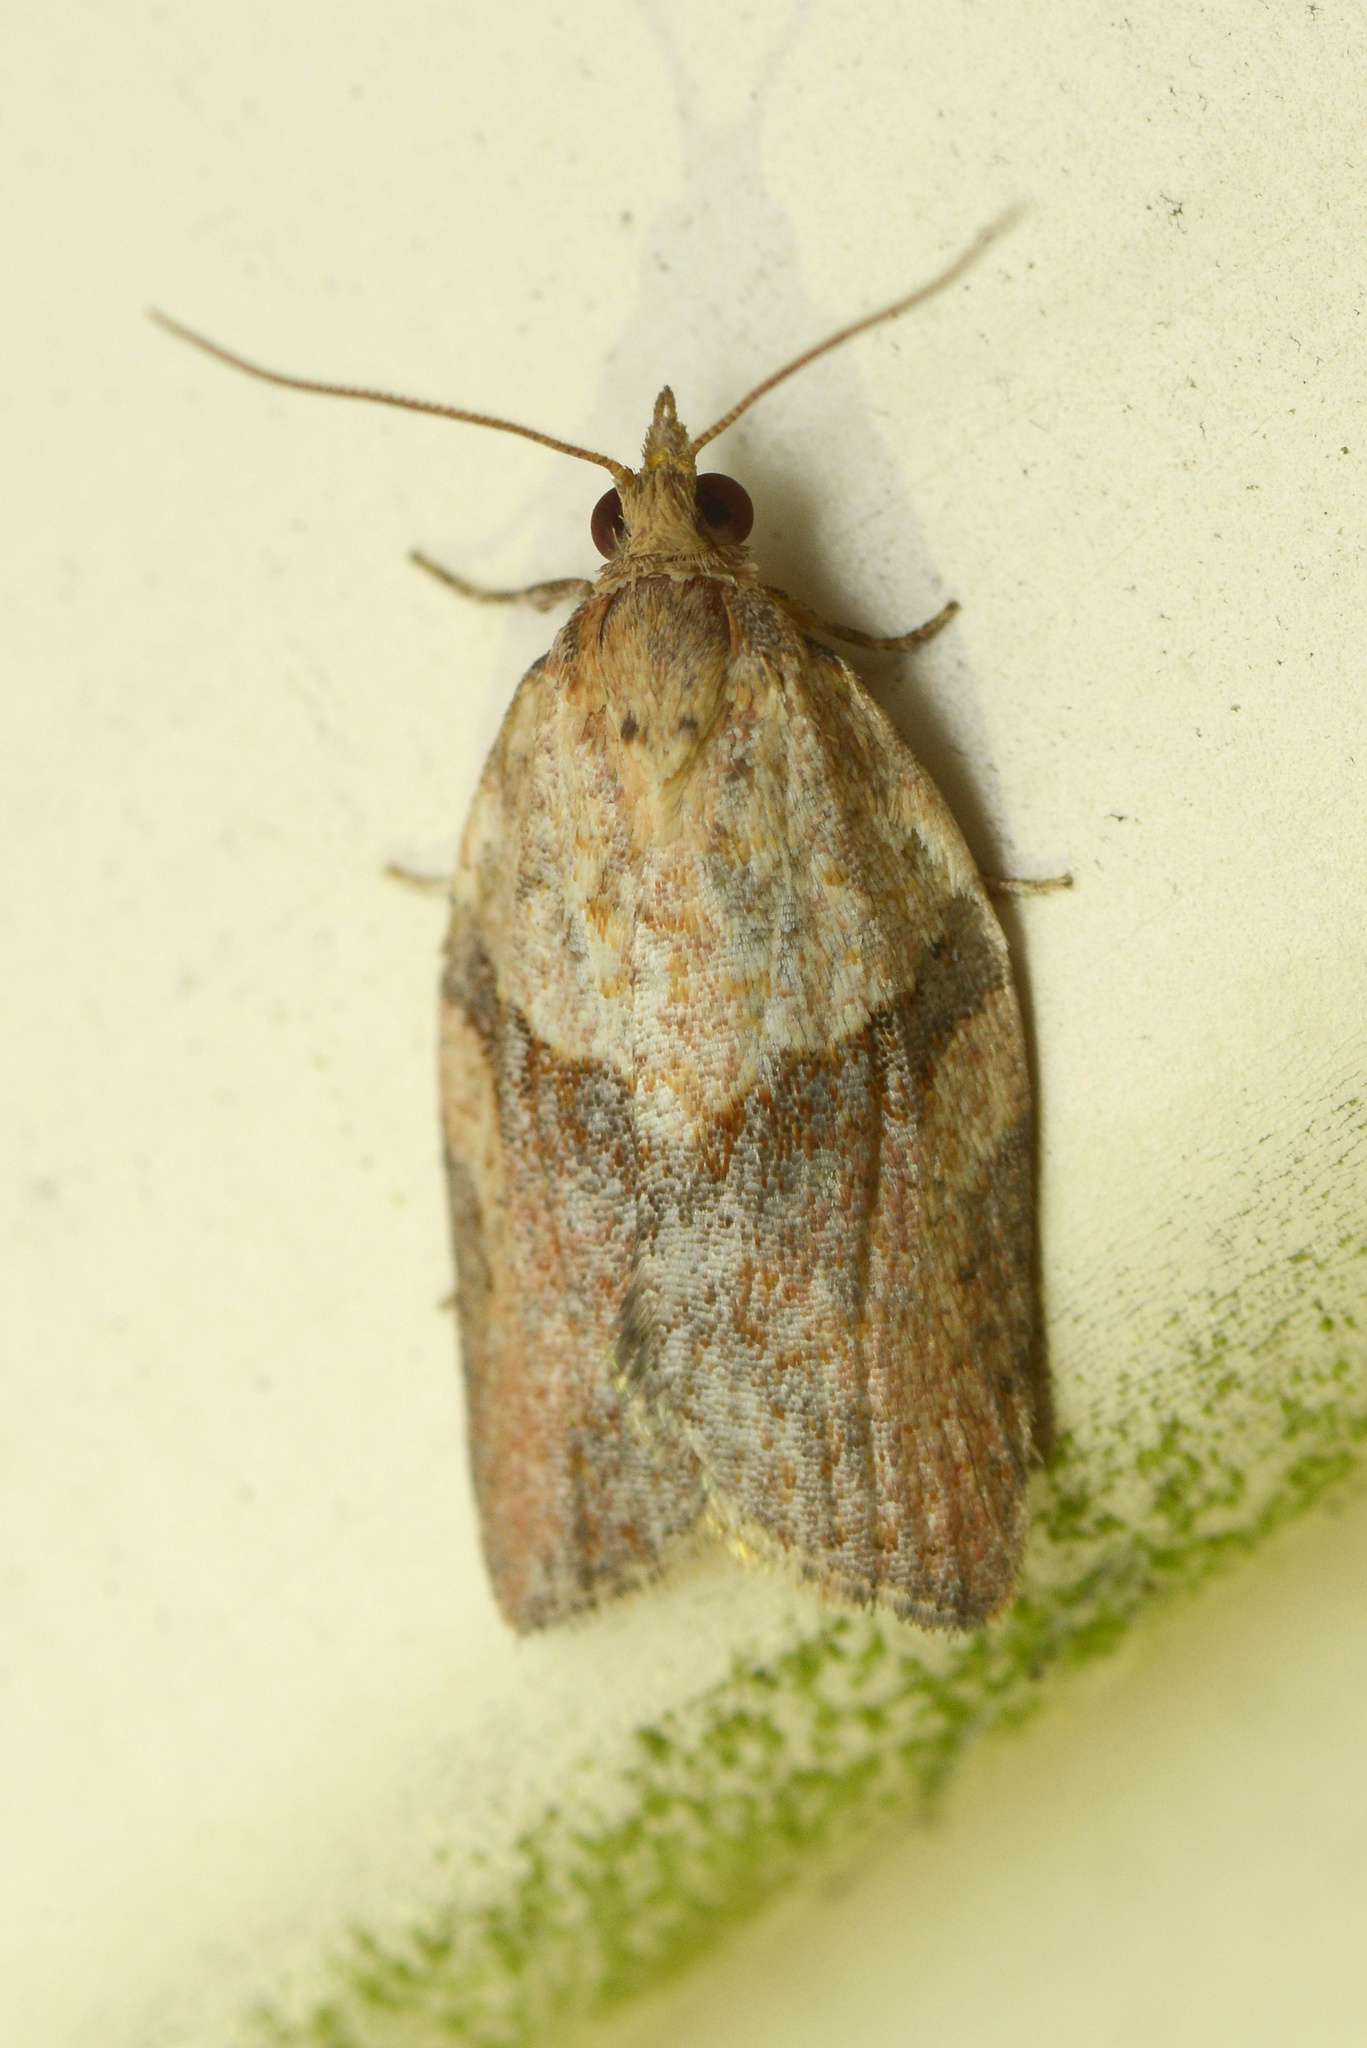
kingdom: Animalia
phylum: Arthropoda
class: Insecta
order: Lepidoptera
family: Tortricidae
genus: Epiphyas
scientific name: Epiphyas postvittana
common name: Light brown apple moth
